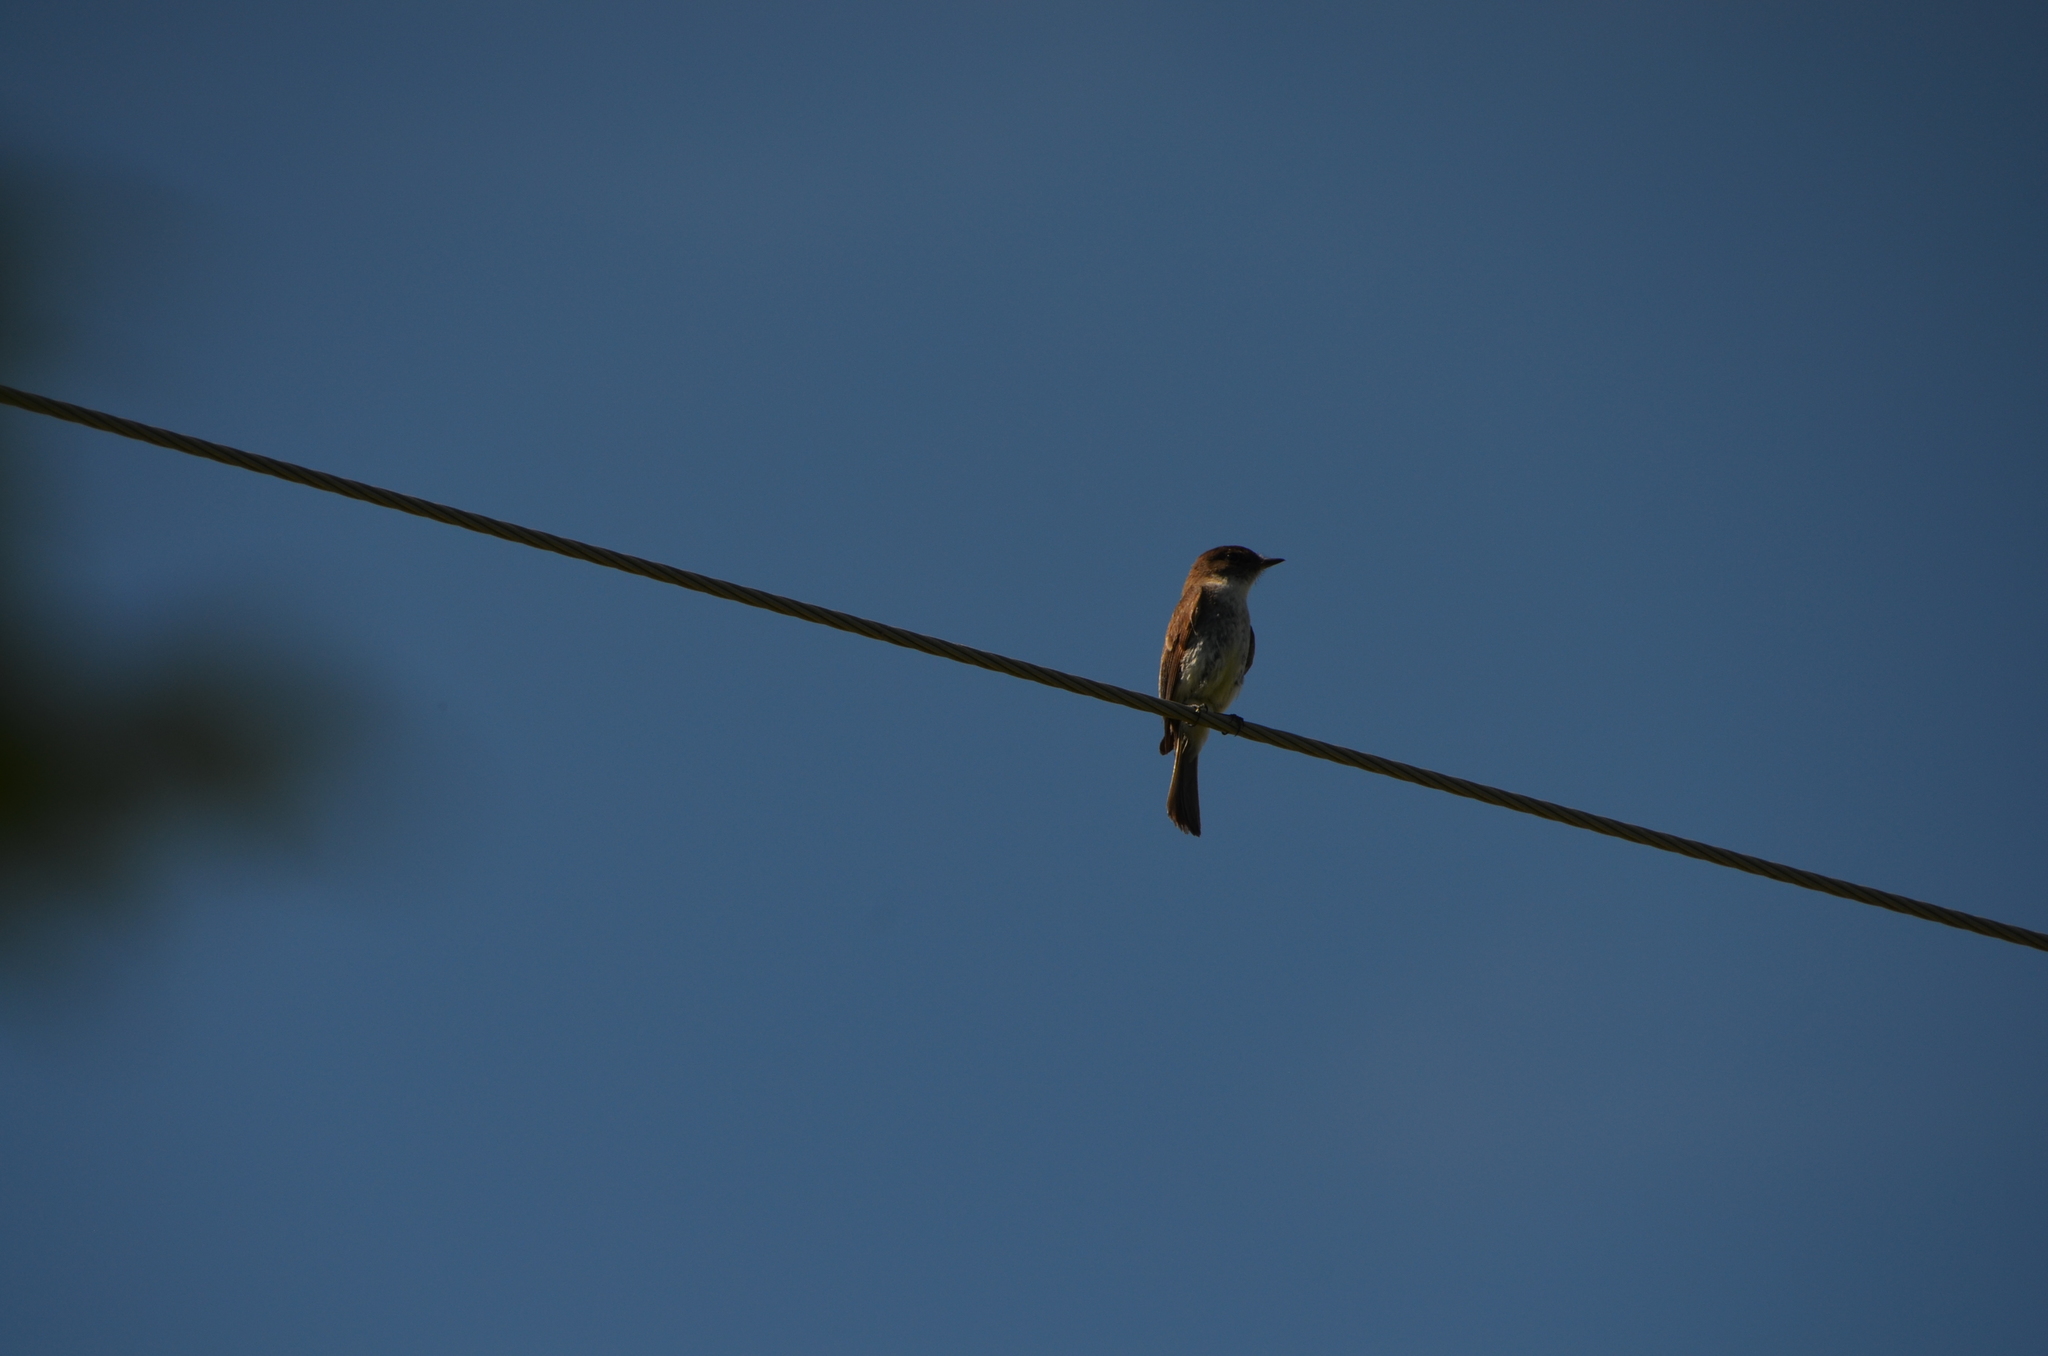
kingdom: Animalia
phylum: Chordata
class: Aves
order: Passeriformes
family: Tyrannidae
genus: Sayornis
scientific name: Sayornis phoebe
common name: Eastern phoebe
